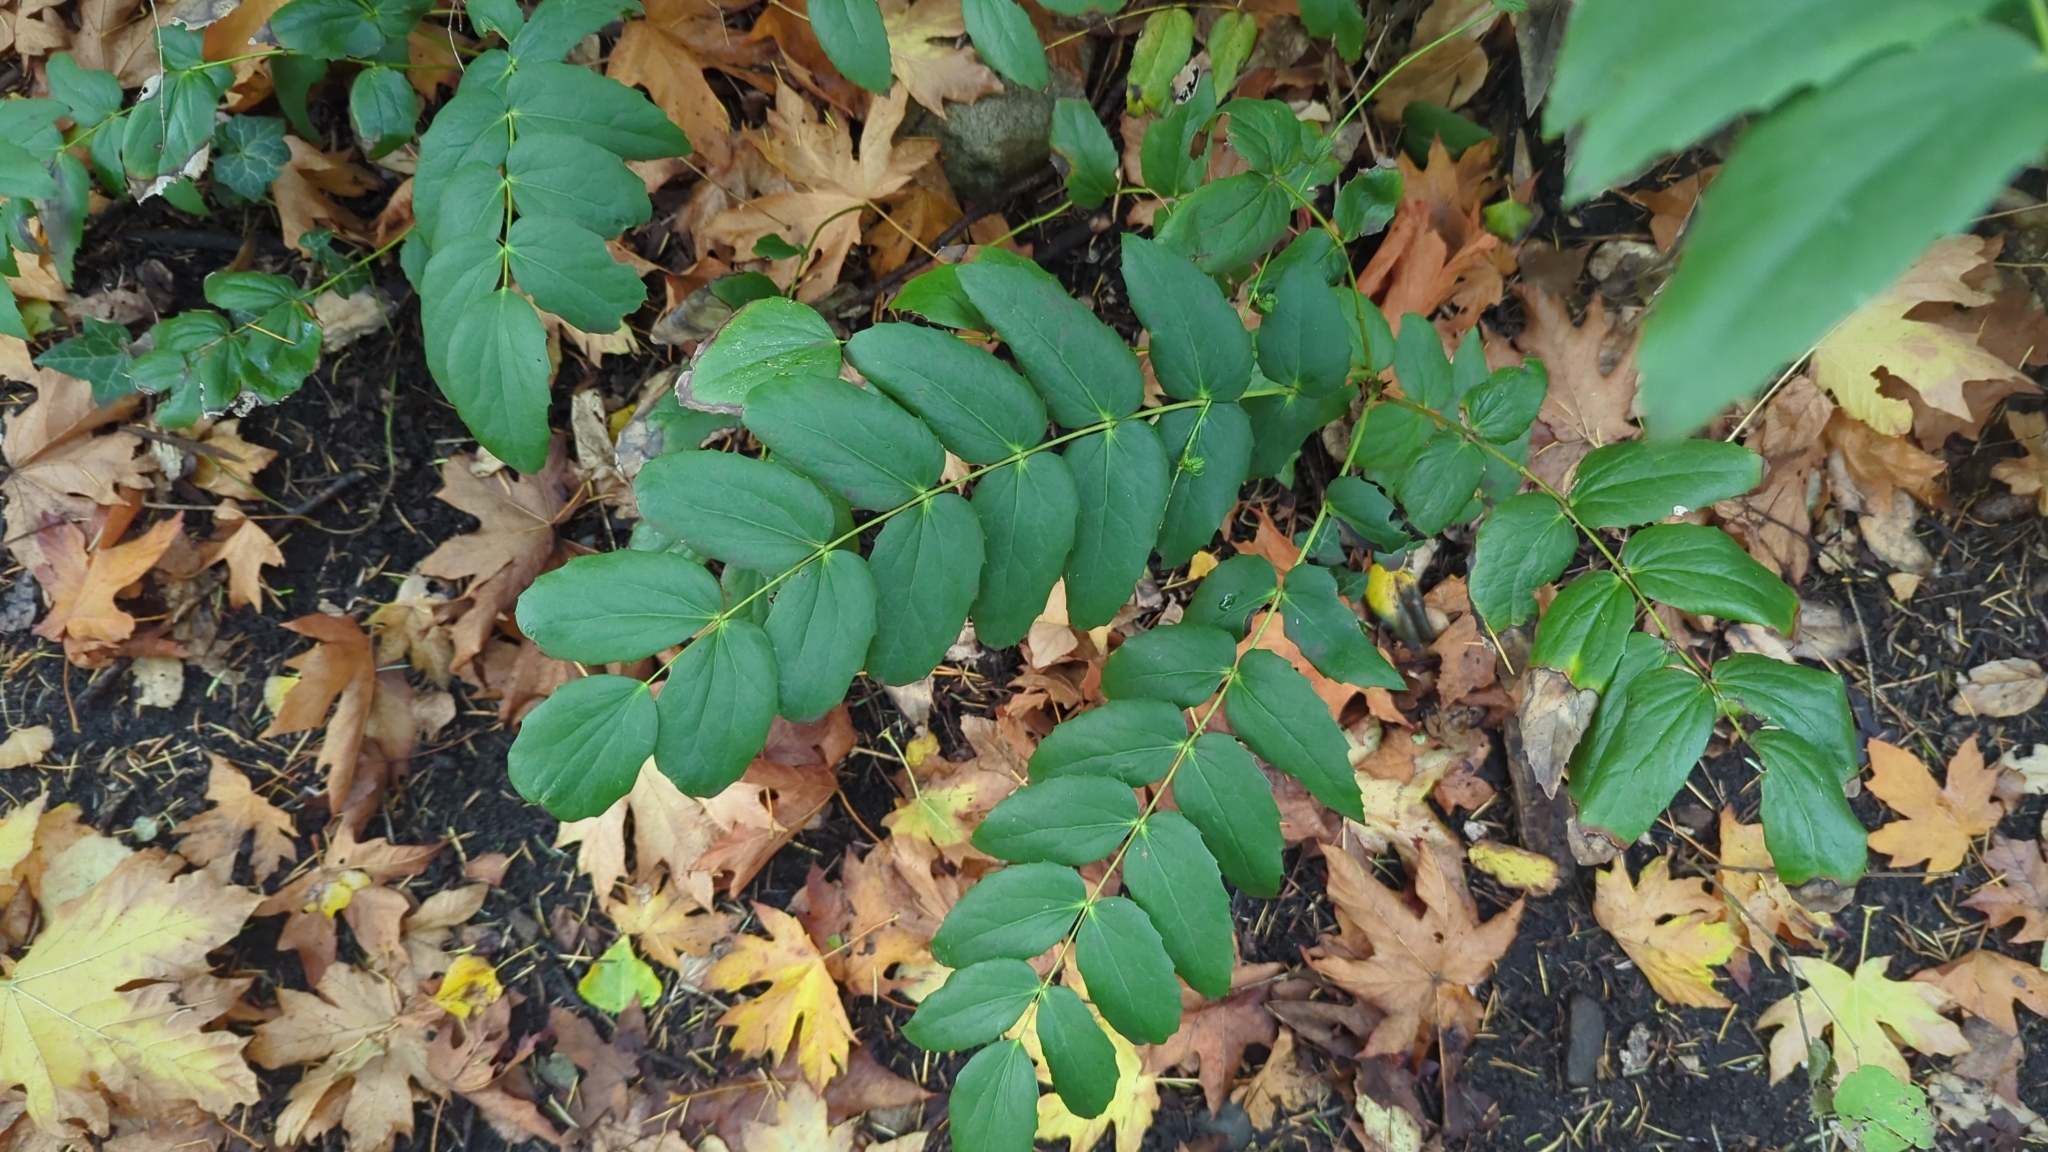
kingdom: Plantae
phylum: Tracheophyta
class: Magnoliopsida
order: Ranunculales
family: Berberidaceae
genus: Mahonia
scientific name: Mahonia nervosa
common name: Cascade oregon-grape
